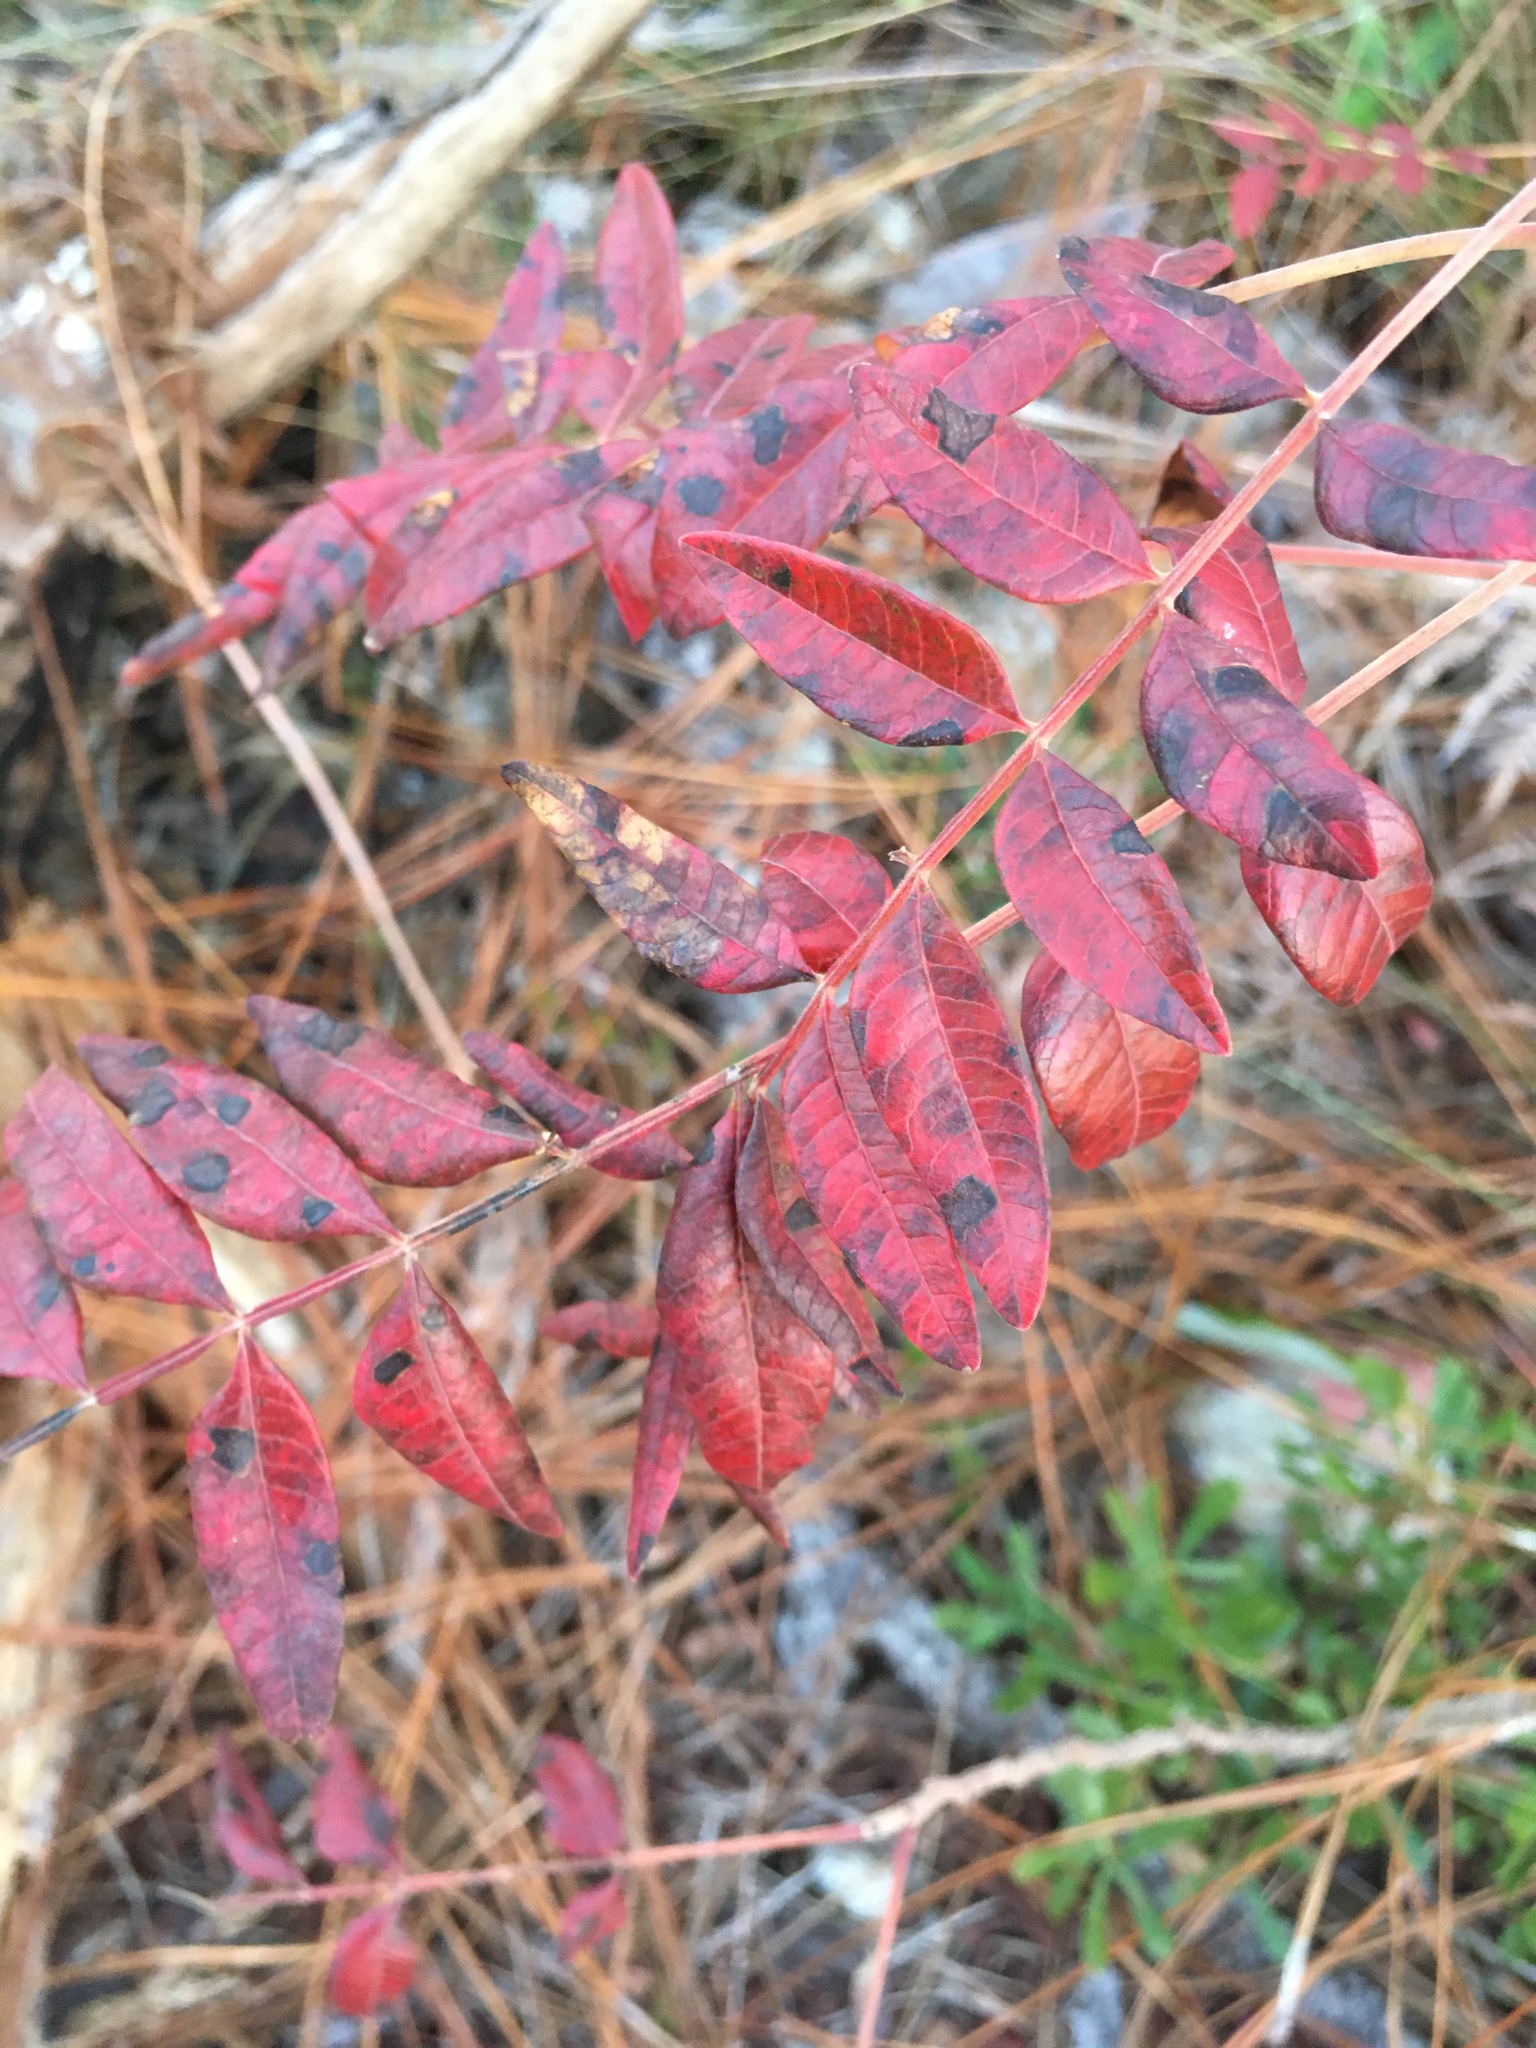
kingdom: Plantae
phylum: Tracheophyta
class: Magnoliopsida
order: Sapindales
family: Anacardiaceae
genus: Rhus
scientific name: Rhus copallina
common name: Shining sumac
